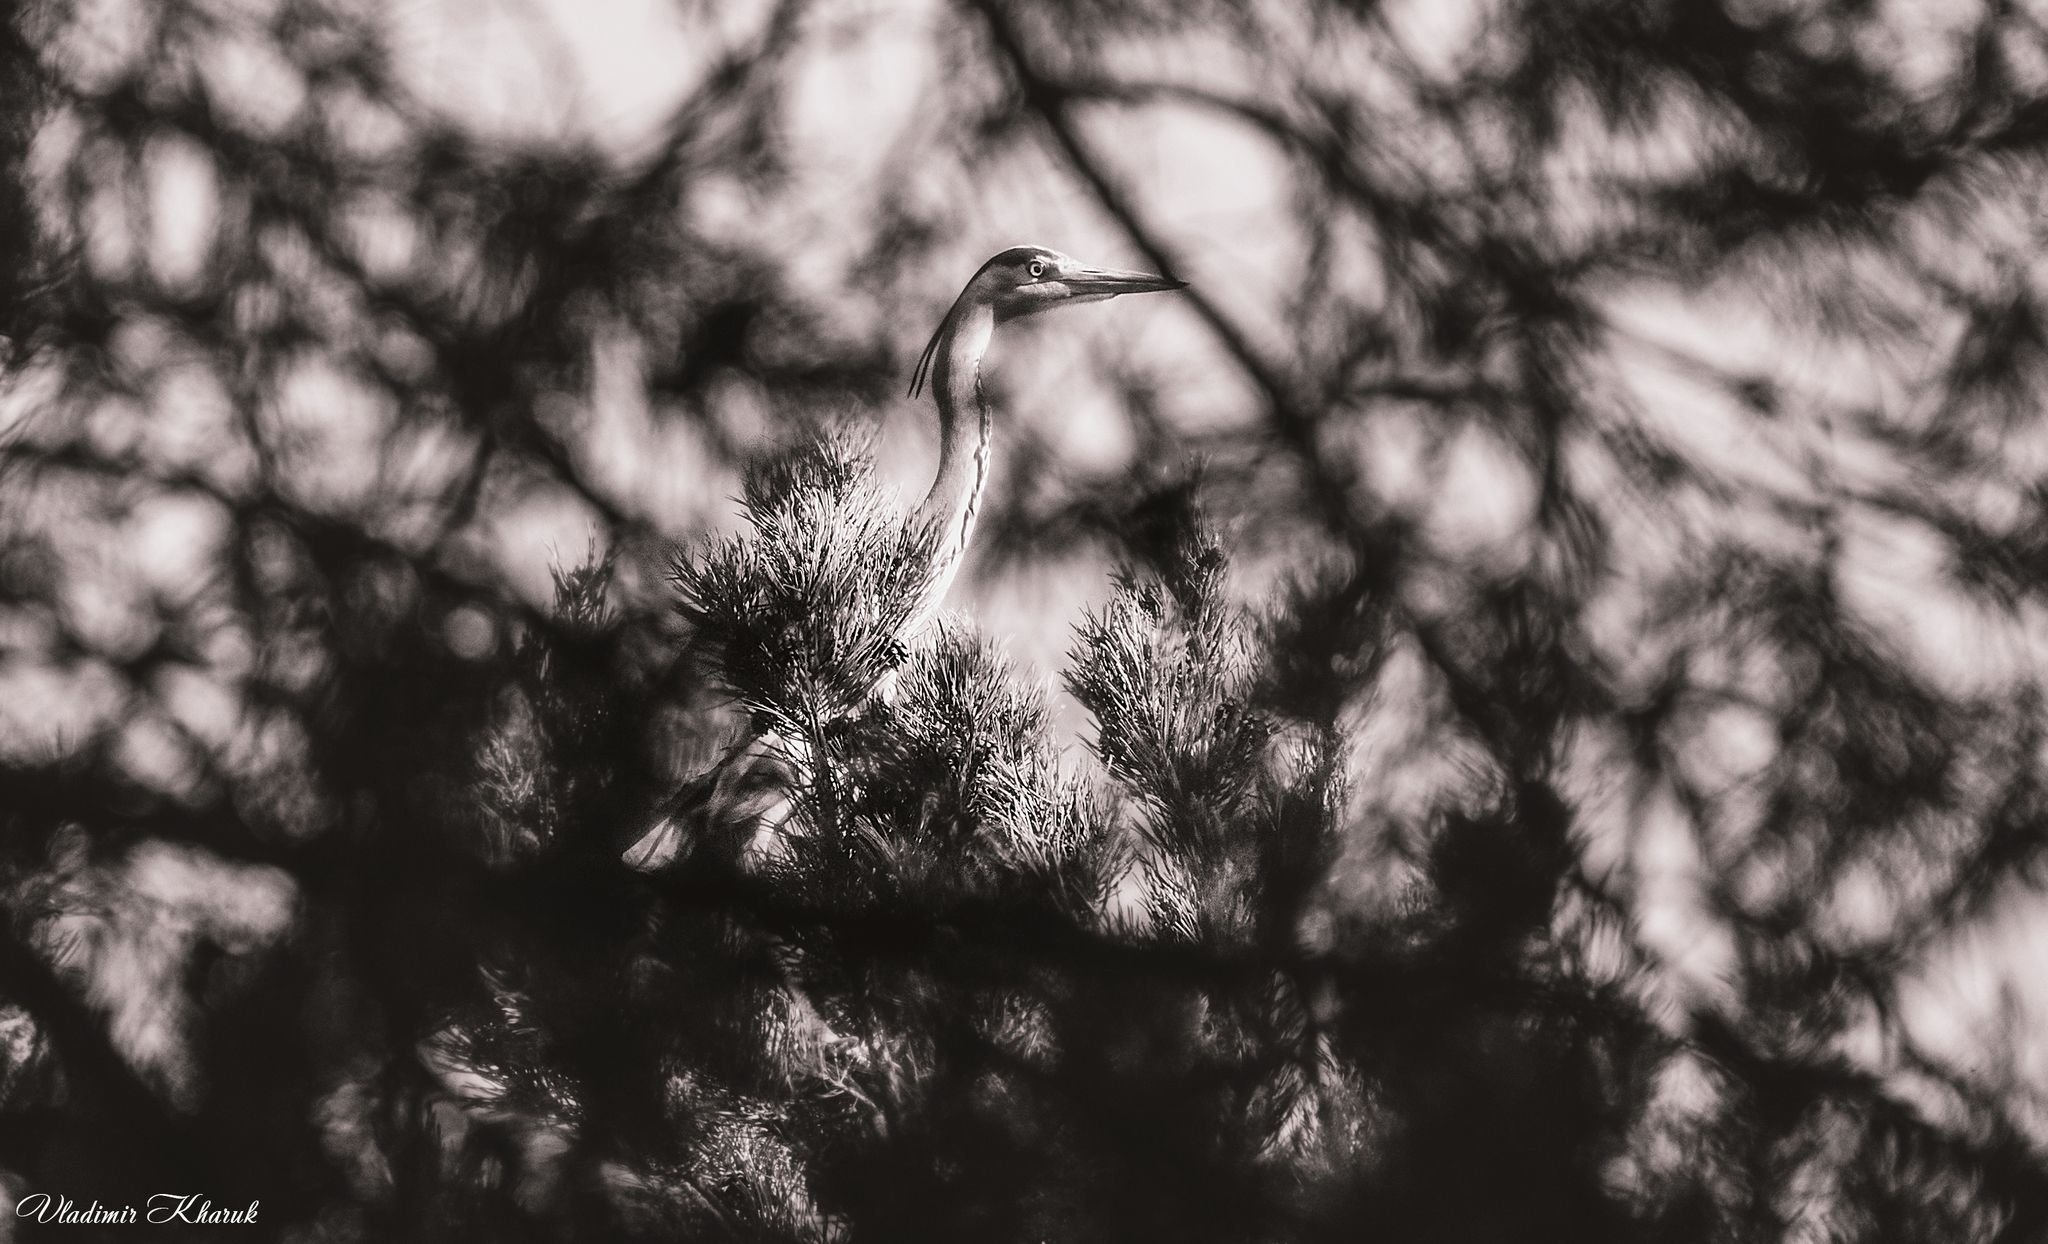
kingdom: Animalia
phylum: Chordata
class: Aves
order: Pelecaniformes
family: Ardeidae
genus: Ardea
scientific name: Ardea cinerea
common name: Grey heron
